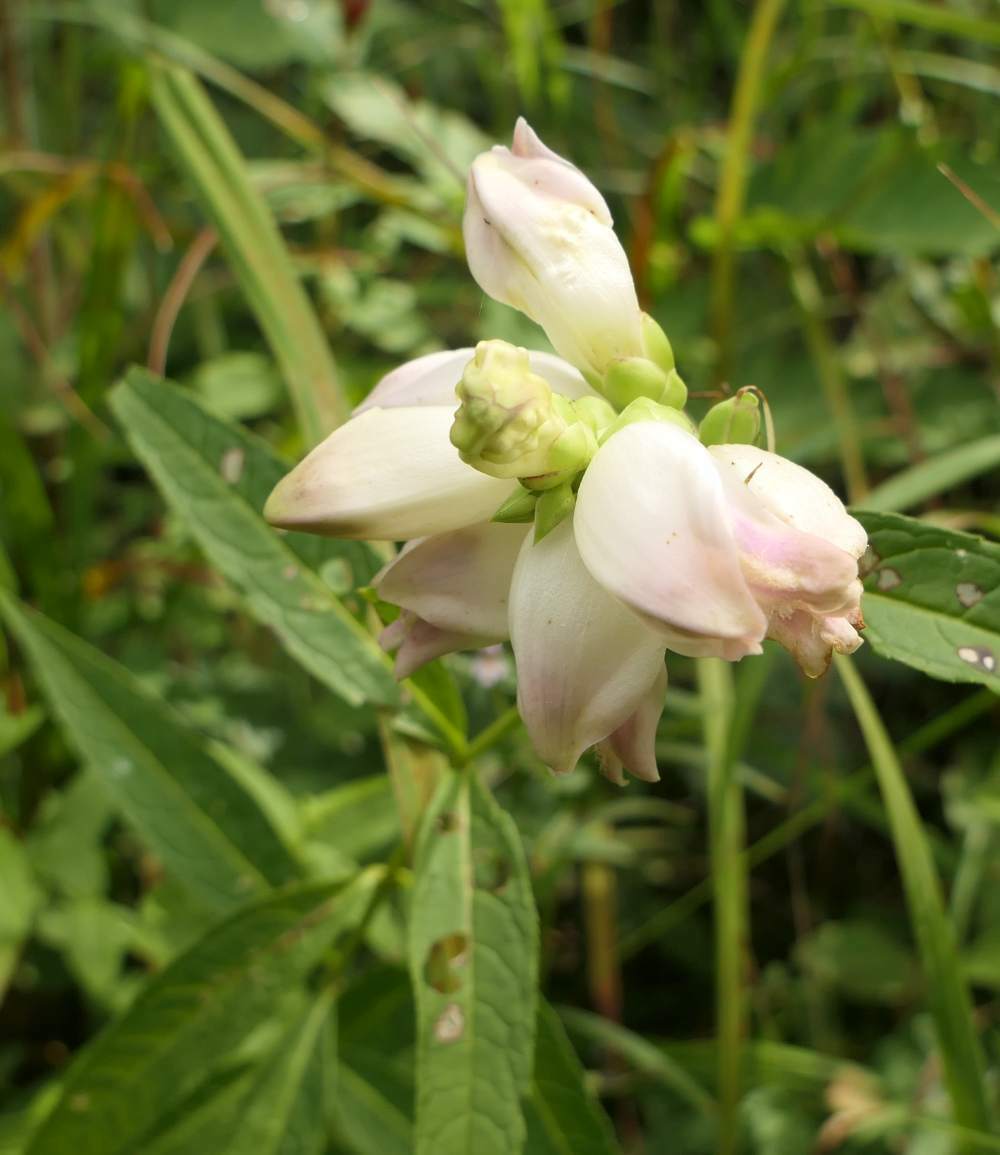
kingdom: Plantae
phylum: Tracheophyta
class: Magnoliopsida
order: Lamiales
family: Plantaginaceae
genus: Chelone
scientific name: Chelone glabra
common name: Snakehead
